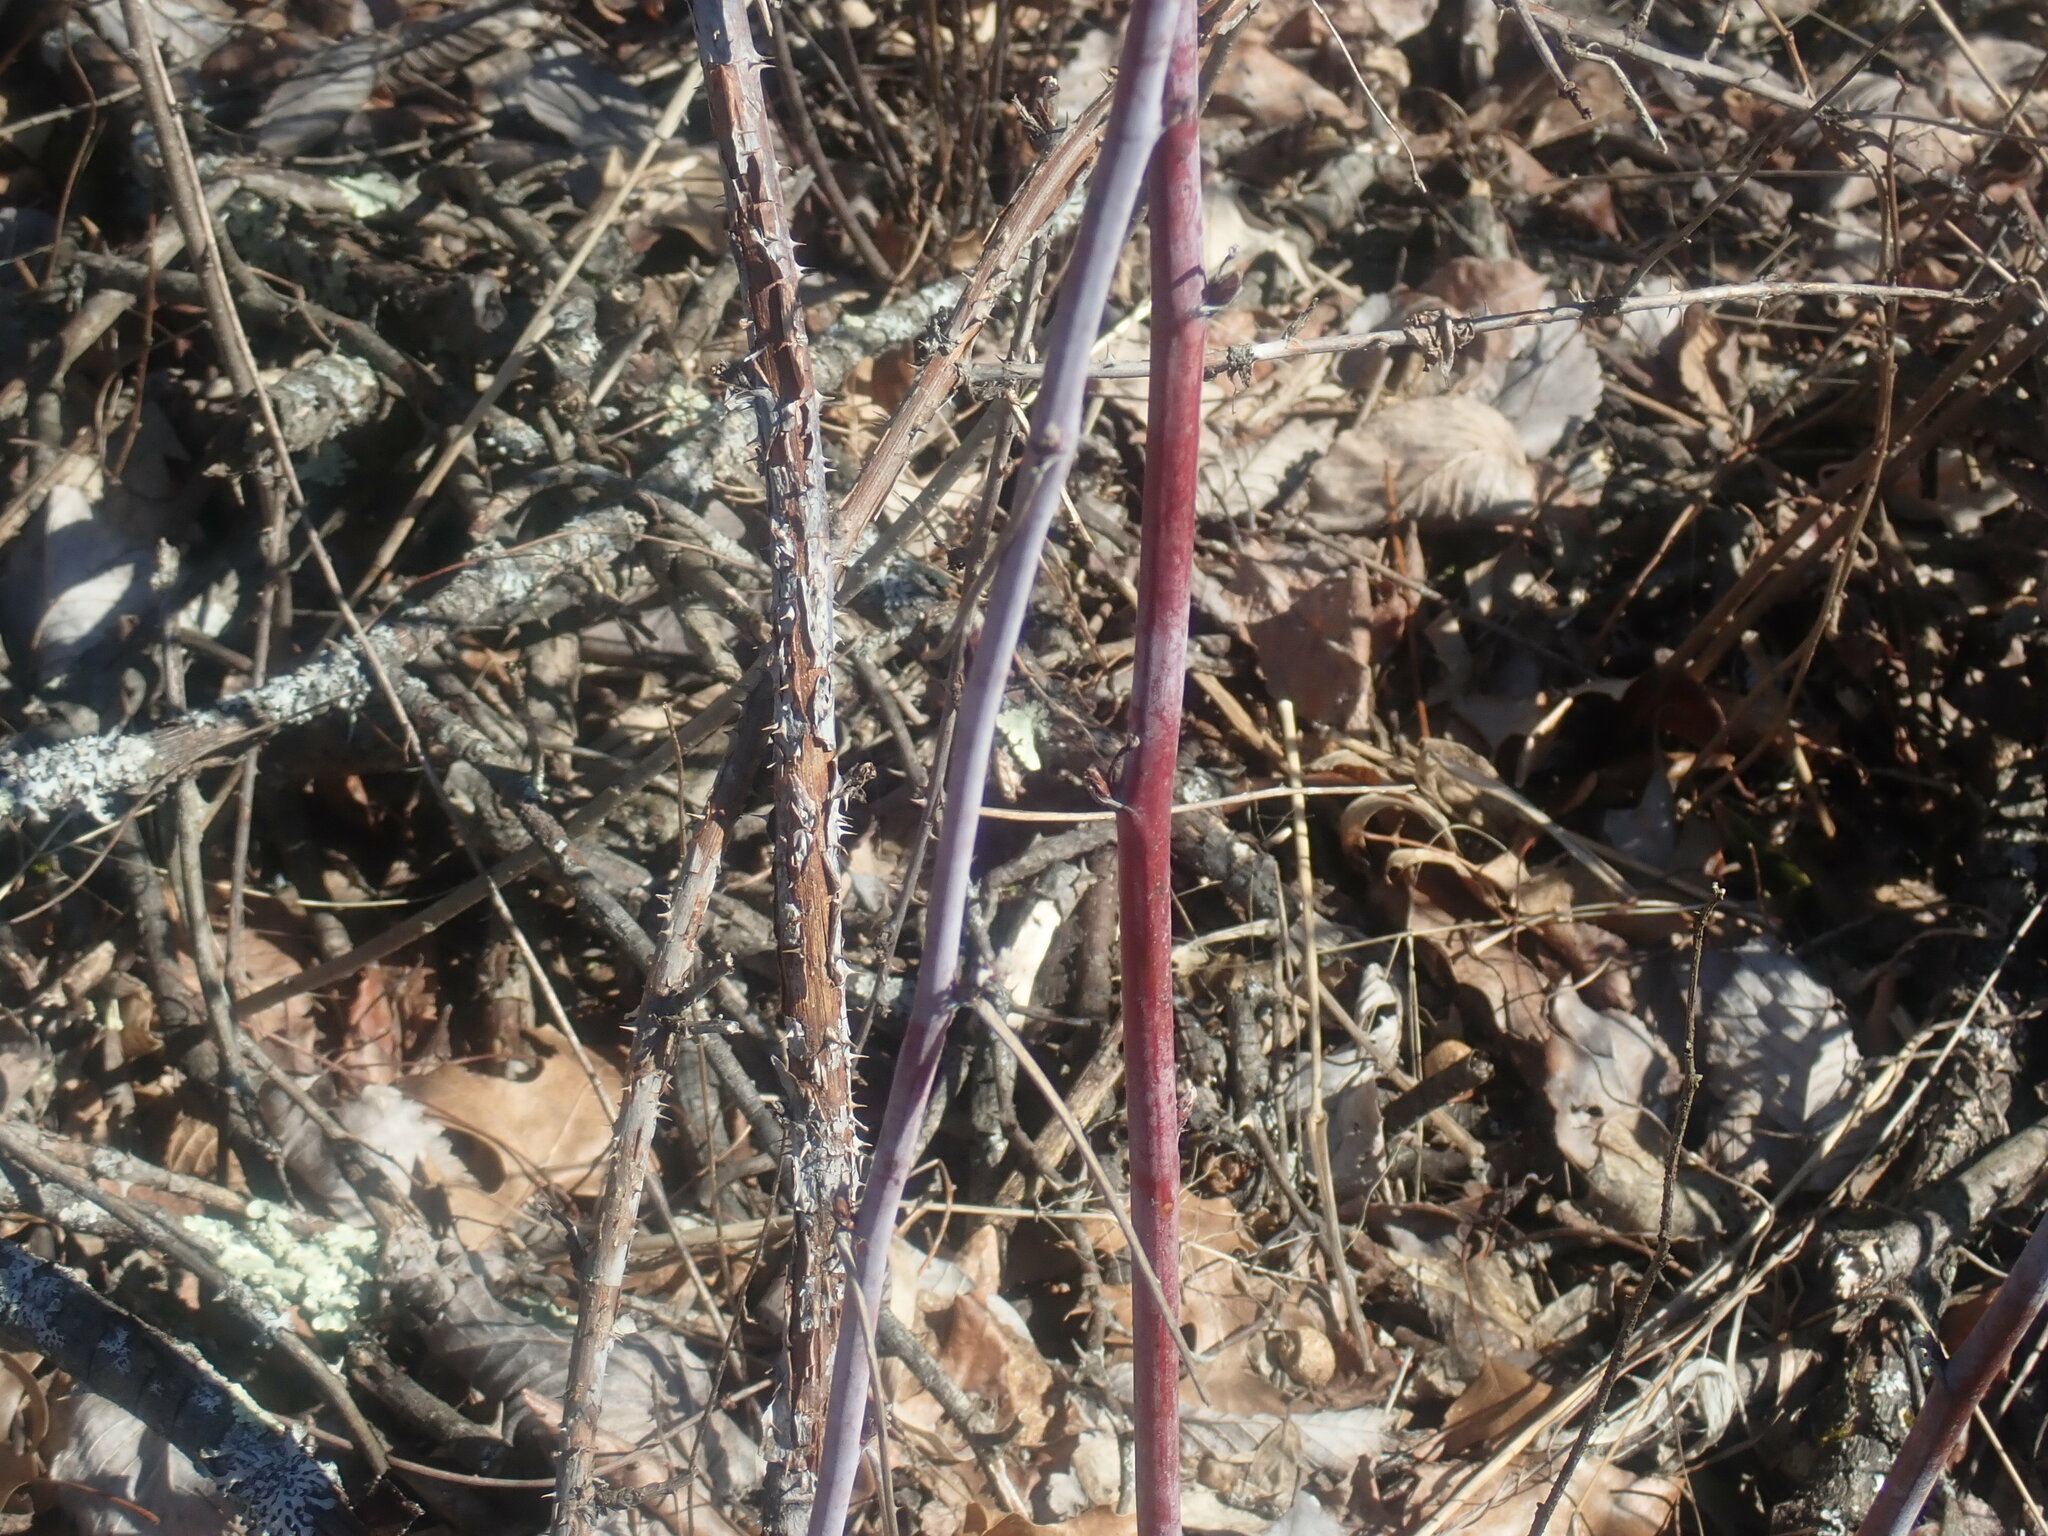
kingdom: Plantae
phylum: Tracheophyta
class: Magnoliopsida
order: Rosales
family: Rosaceae
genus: Rubus
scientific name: Rubus occidentalis
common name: Black raspberry
